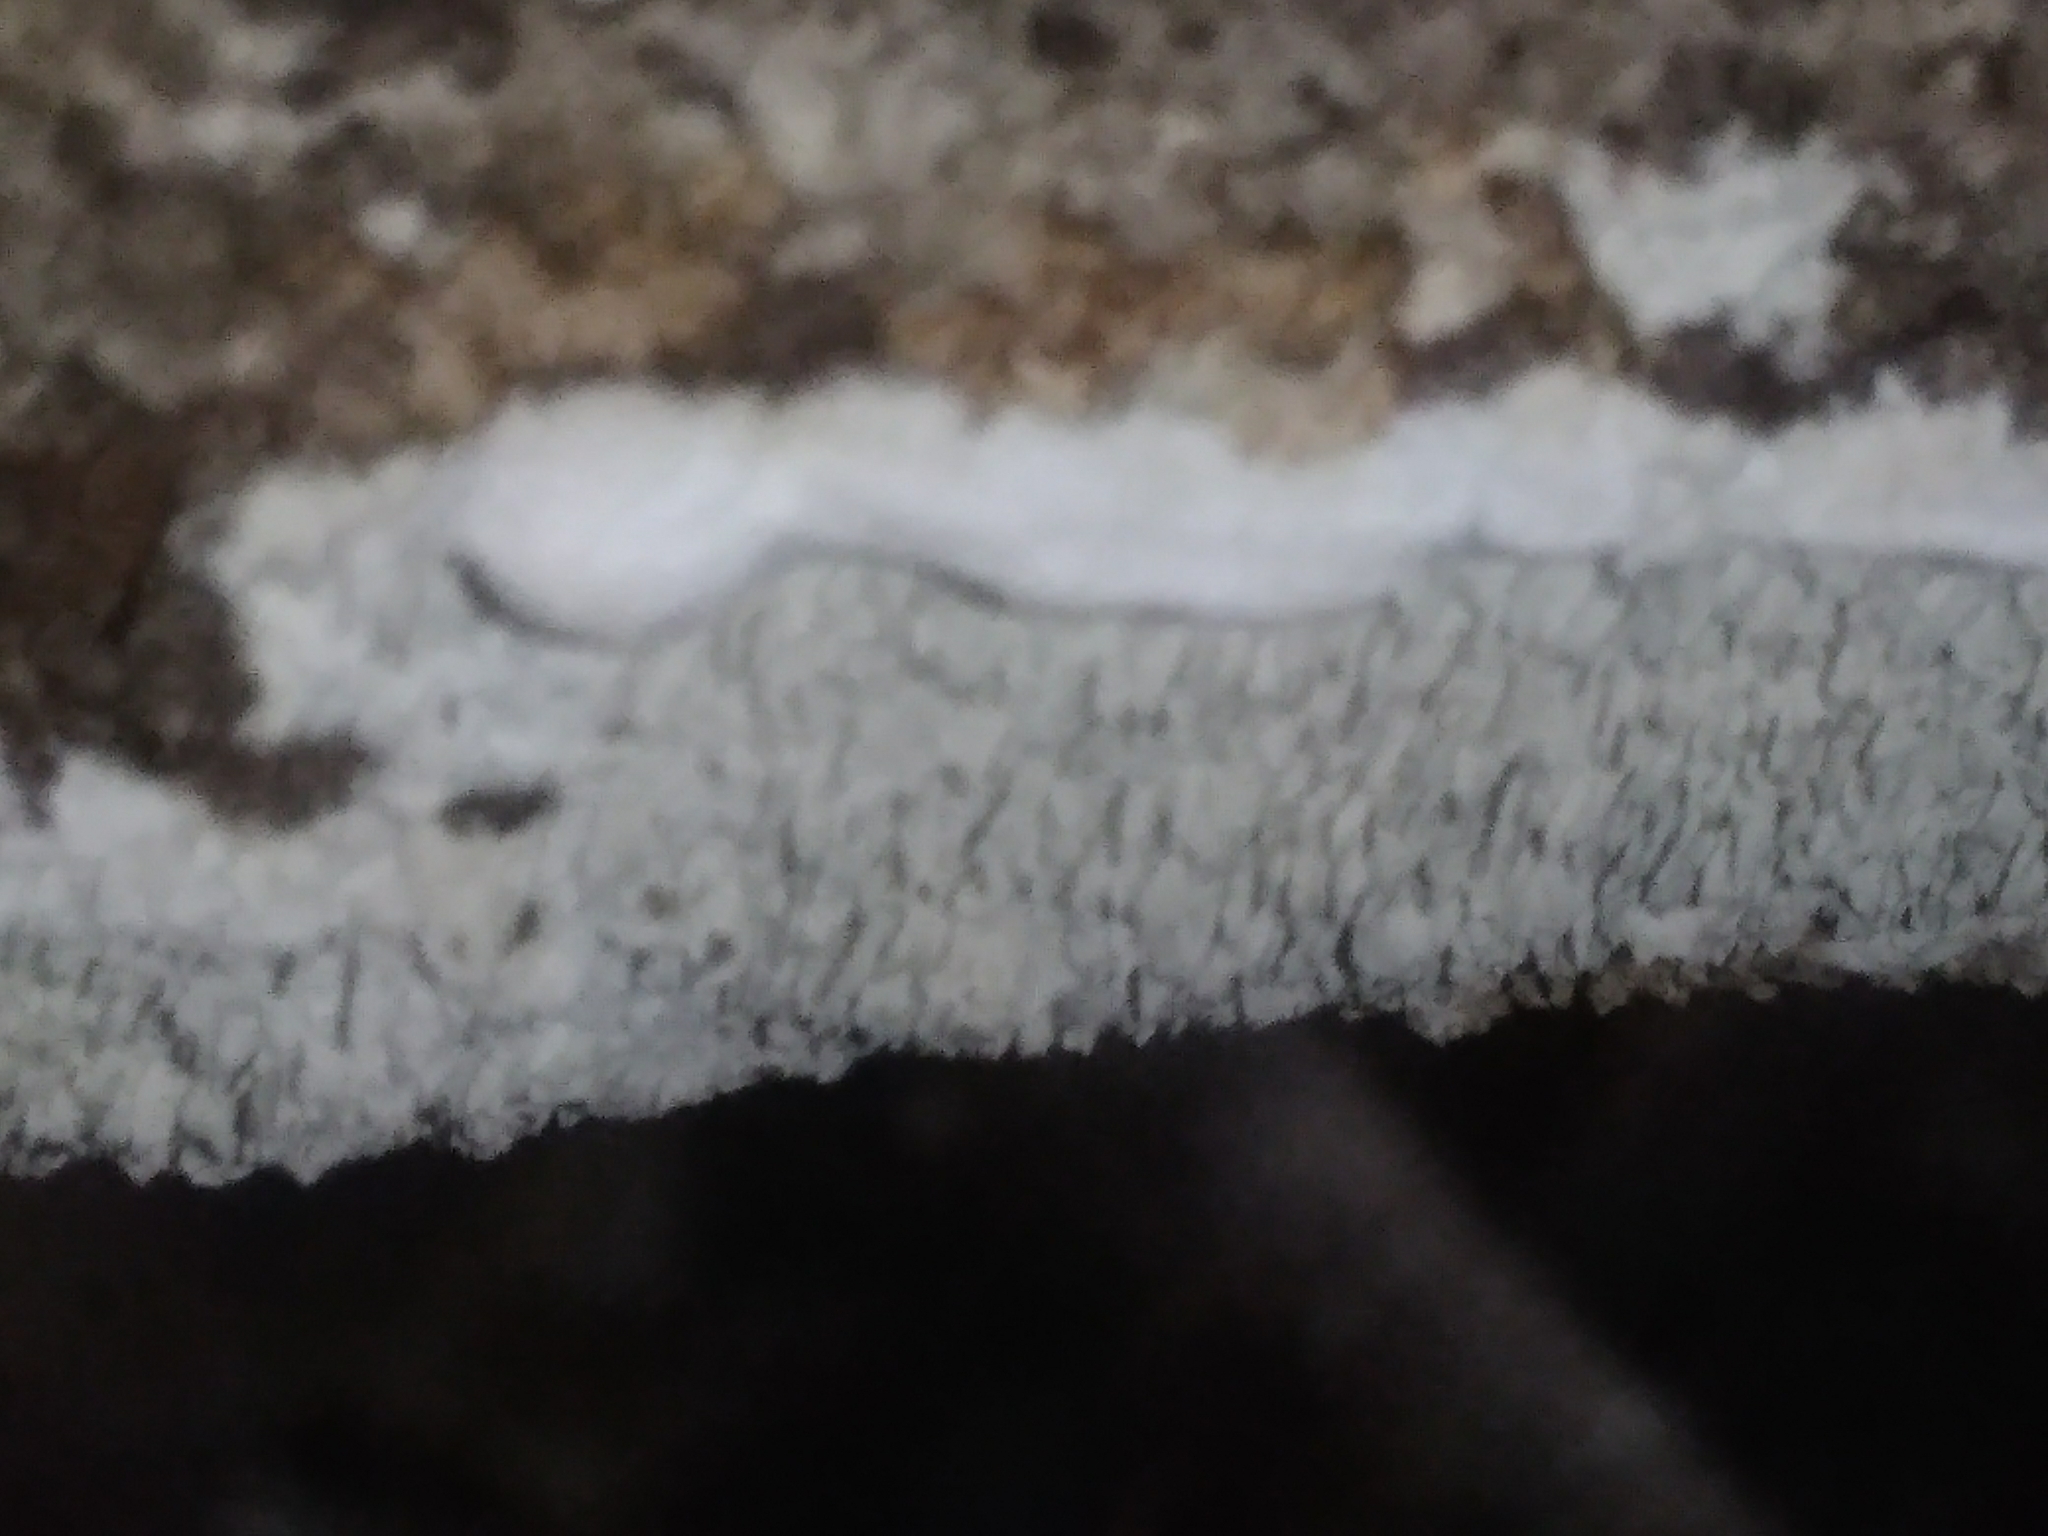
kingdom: Fungi
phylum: Basidiomycota
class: Agaricomycetes
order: Polyporales
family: Irpicaceae
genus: Irpex
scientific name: Irpex lacteus
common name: Milk-white toothed polypore
